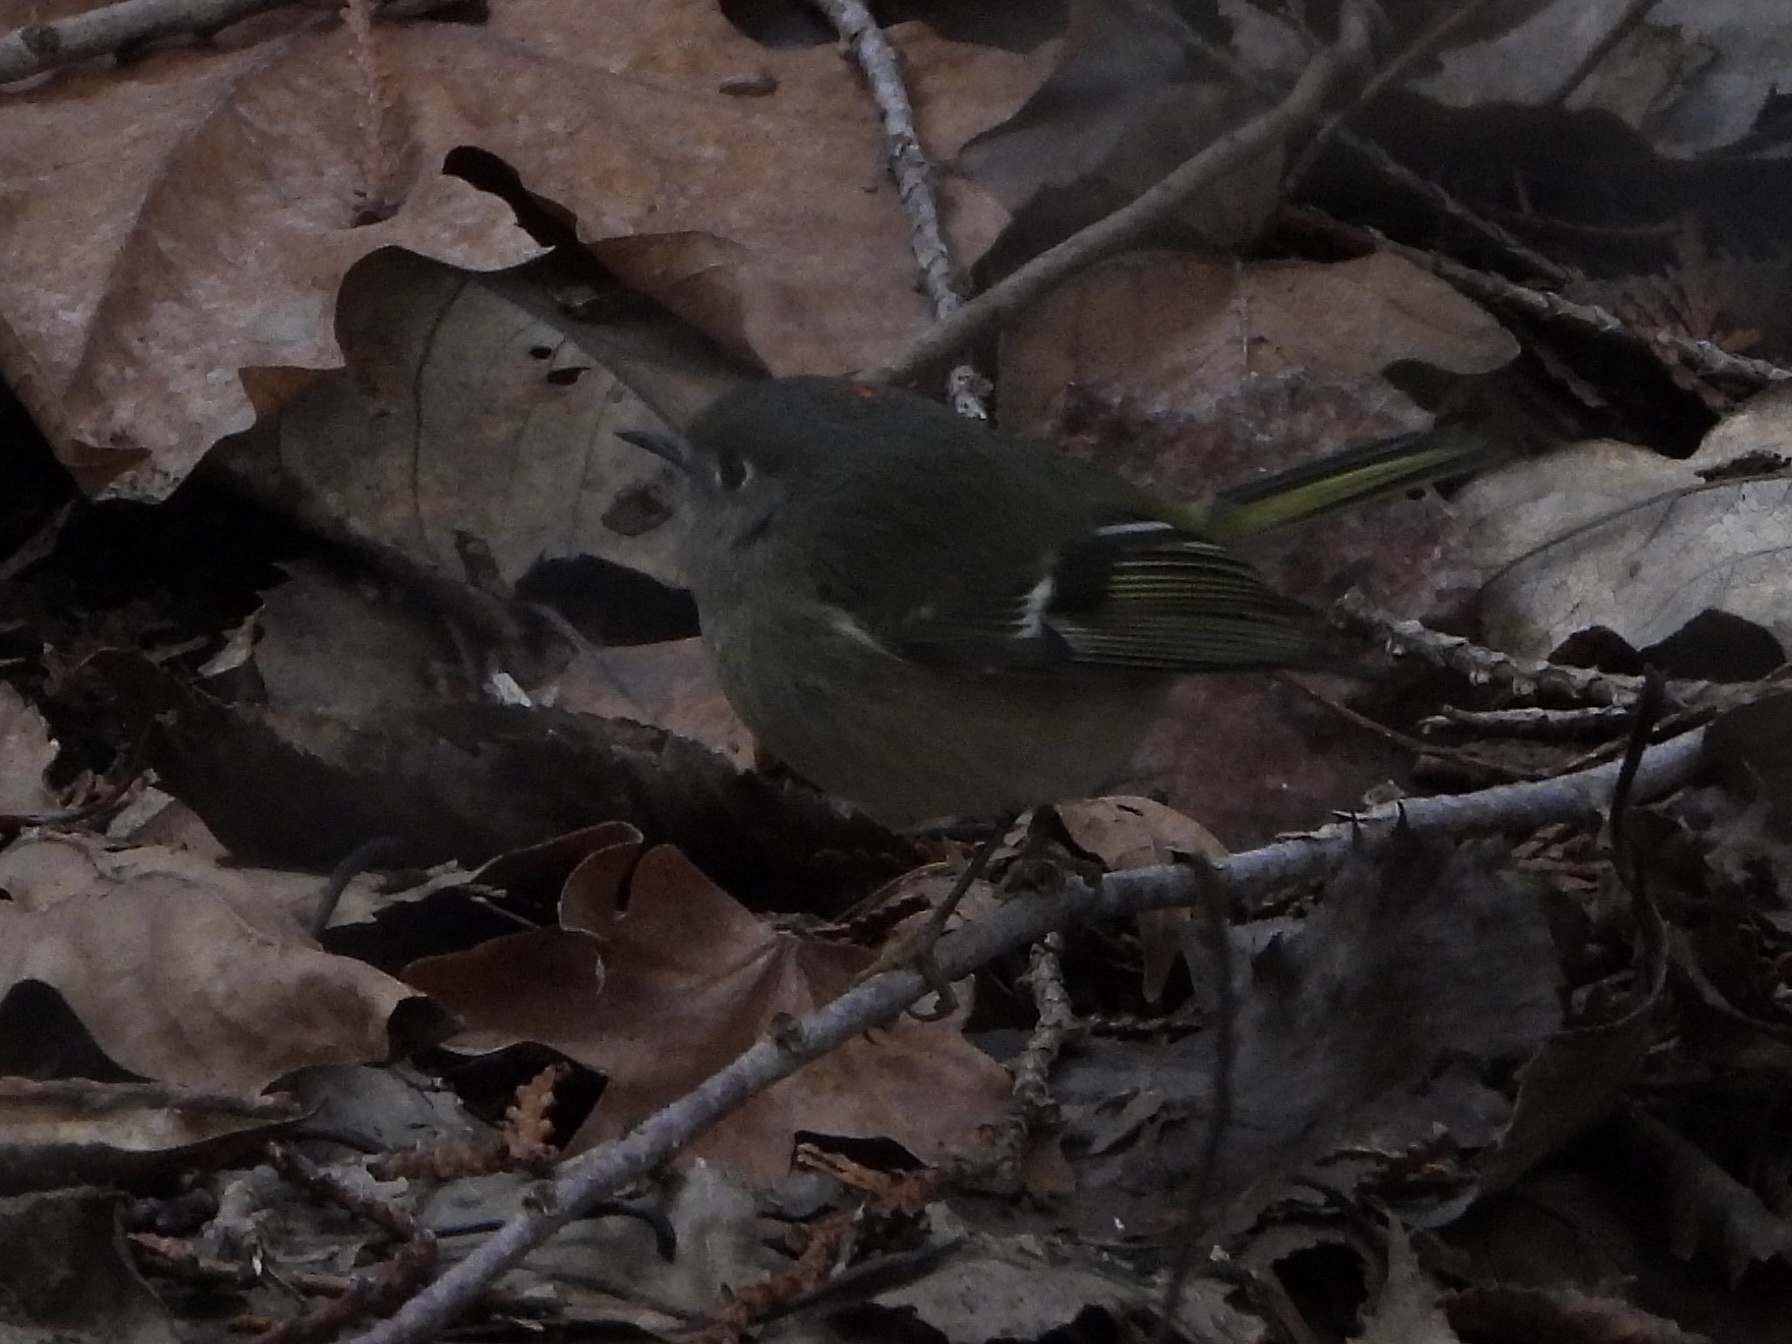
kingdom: Animalia
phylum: Chordata
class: Aves
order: Passeriformes
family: Regulidae
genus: Regulus
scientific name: Regulus calendula
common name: Ruby-crowned kinglet
